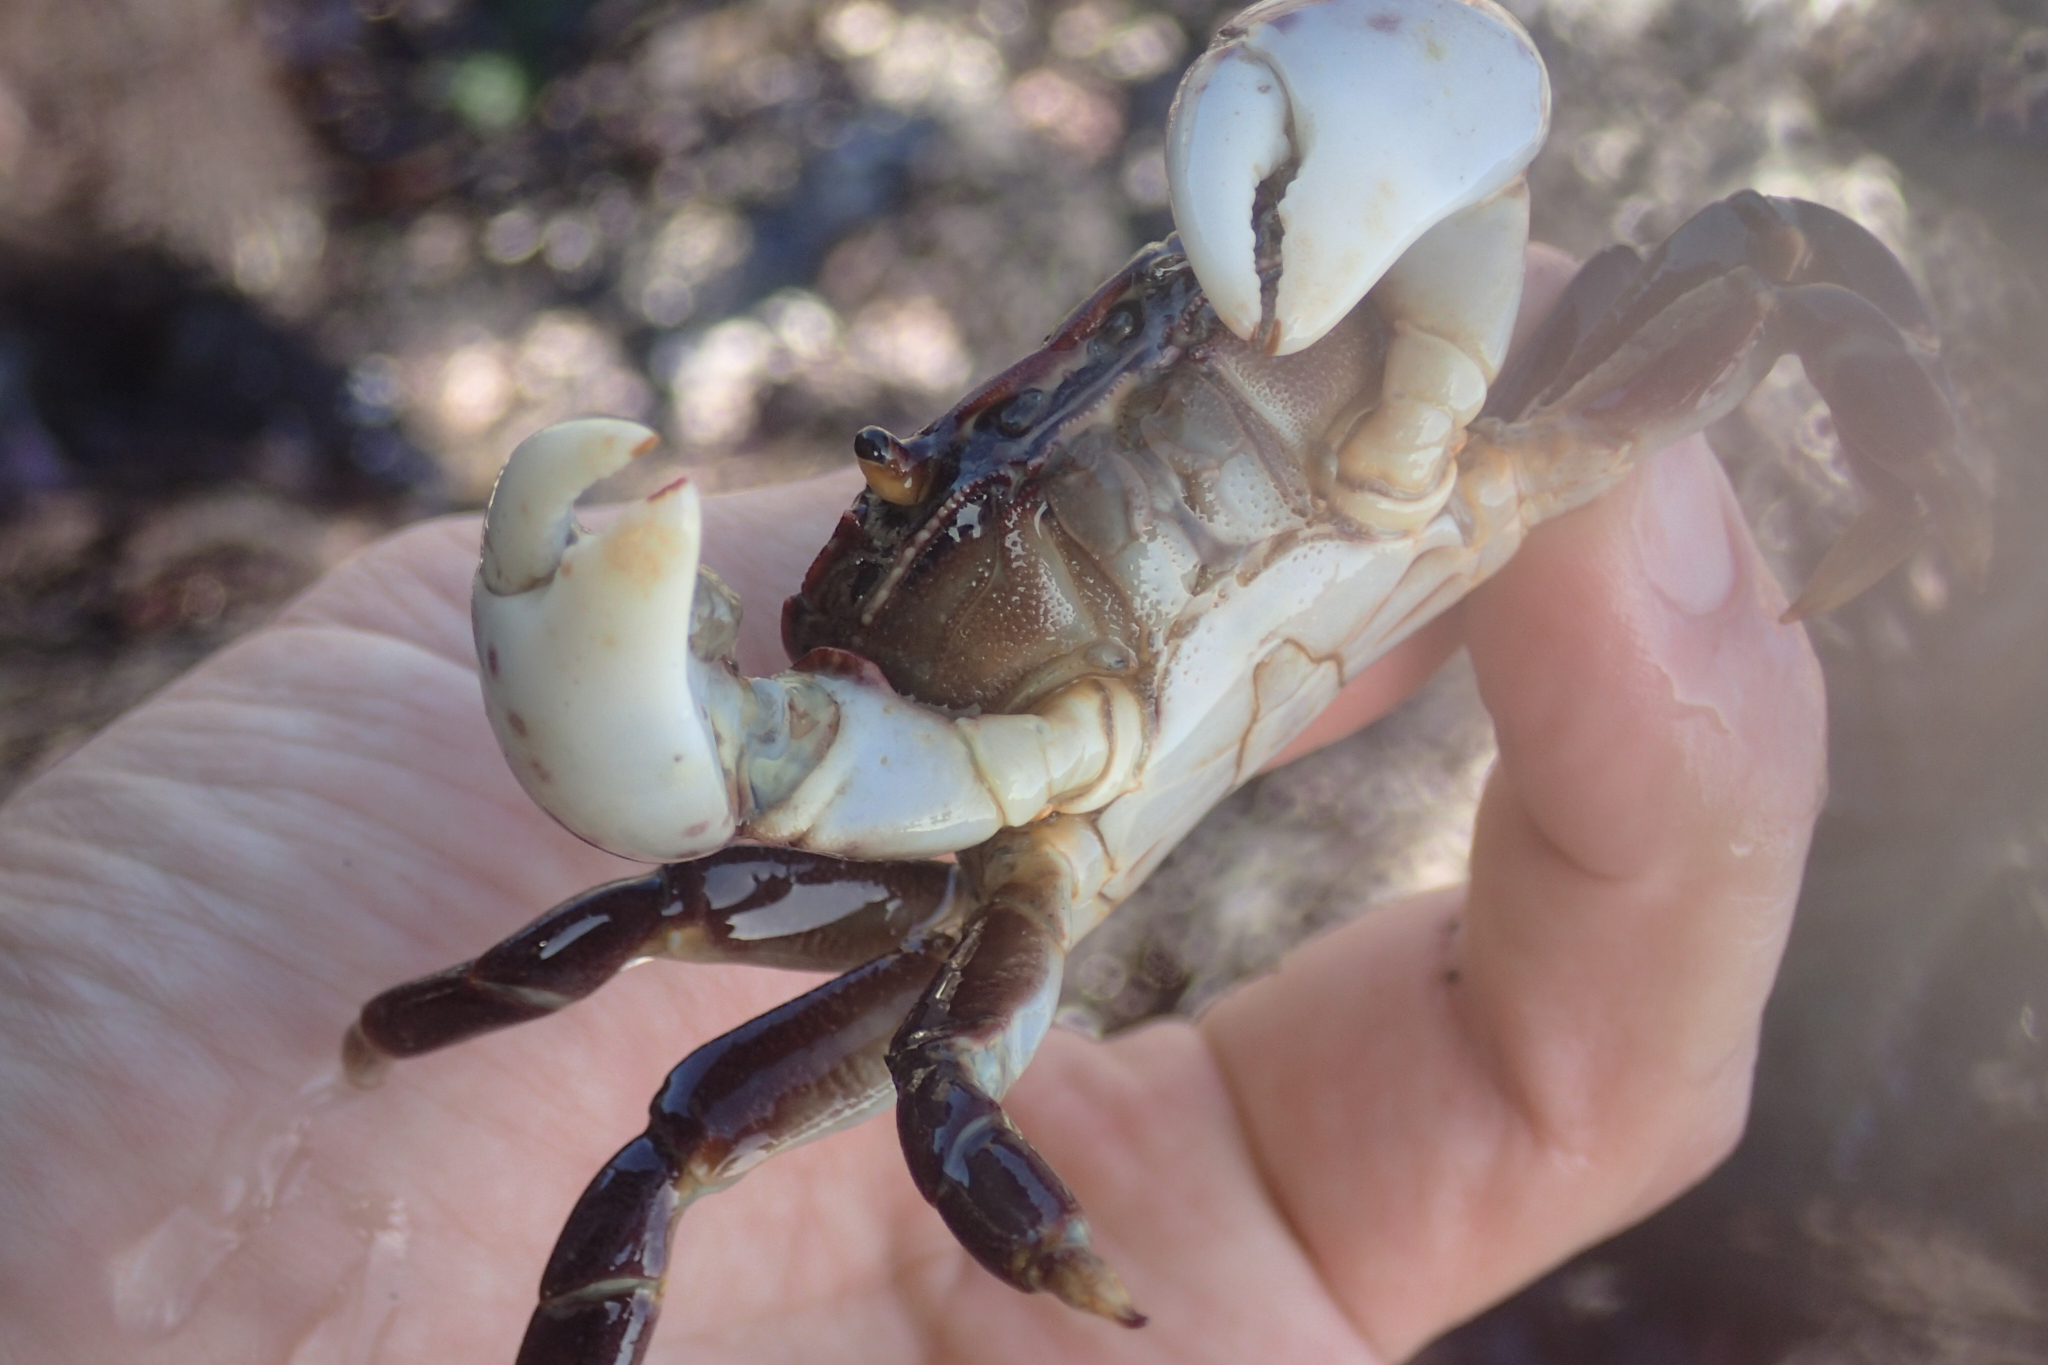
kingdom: Animalia
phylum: Arthropoda
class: Malacostraca
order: Decapoda
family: Varunidae
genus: Hemigrapsus
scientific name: Hemigrapsus nudus
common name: Purple shore crab
